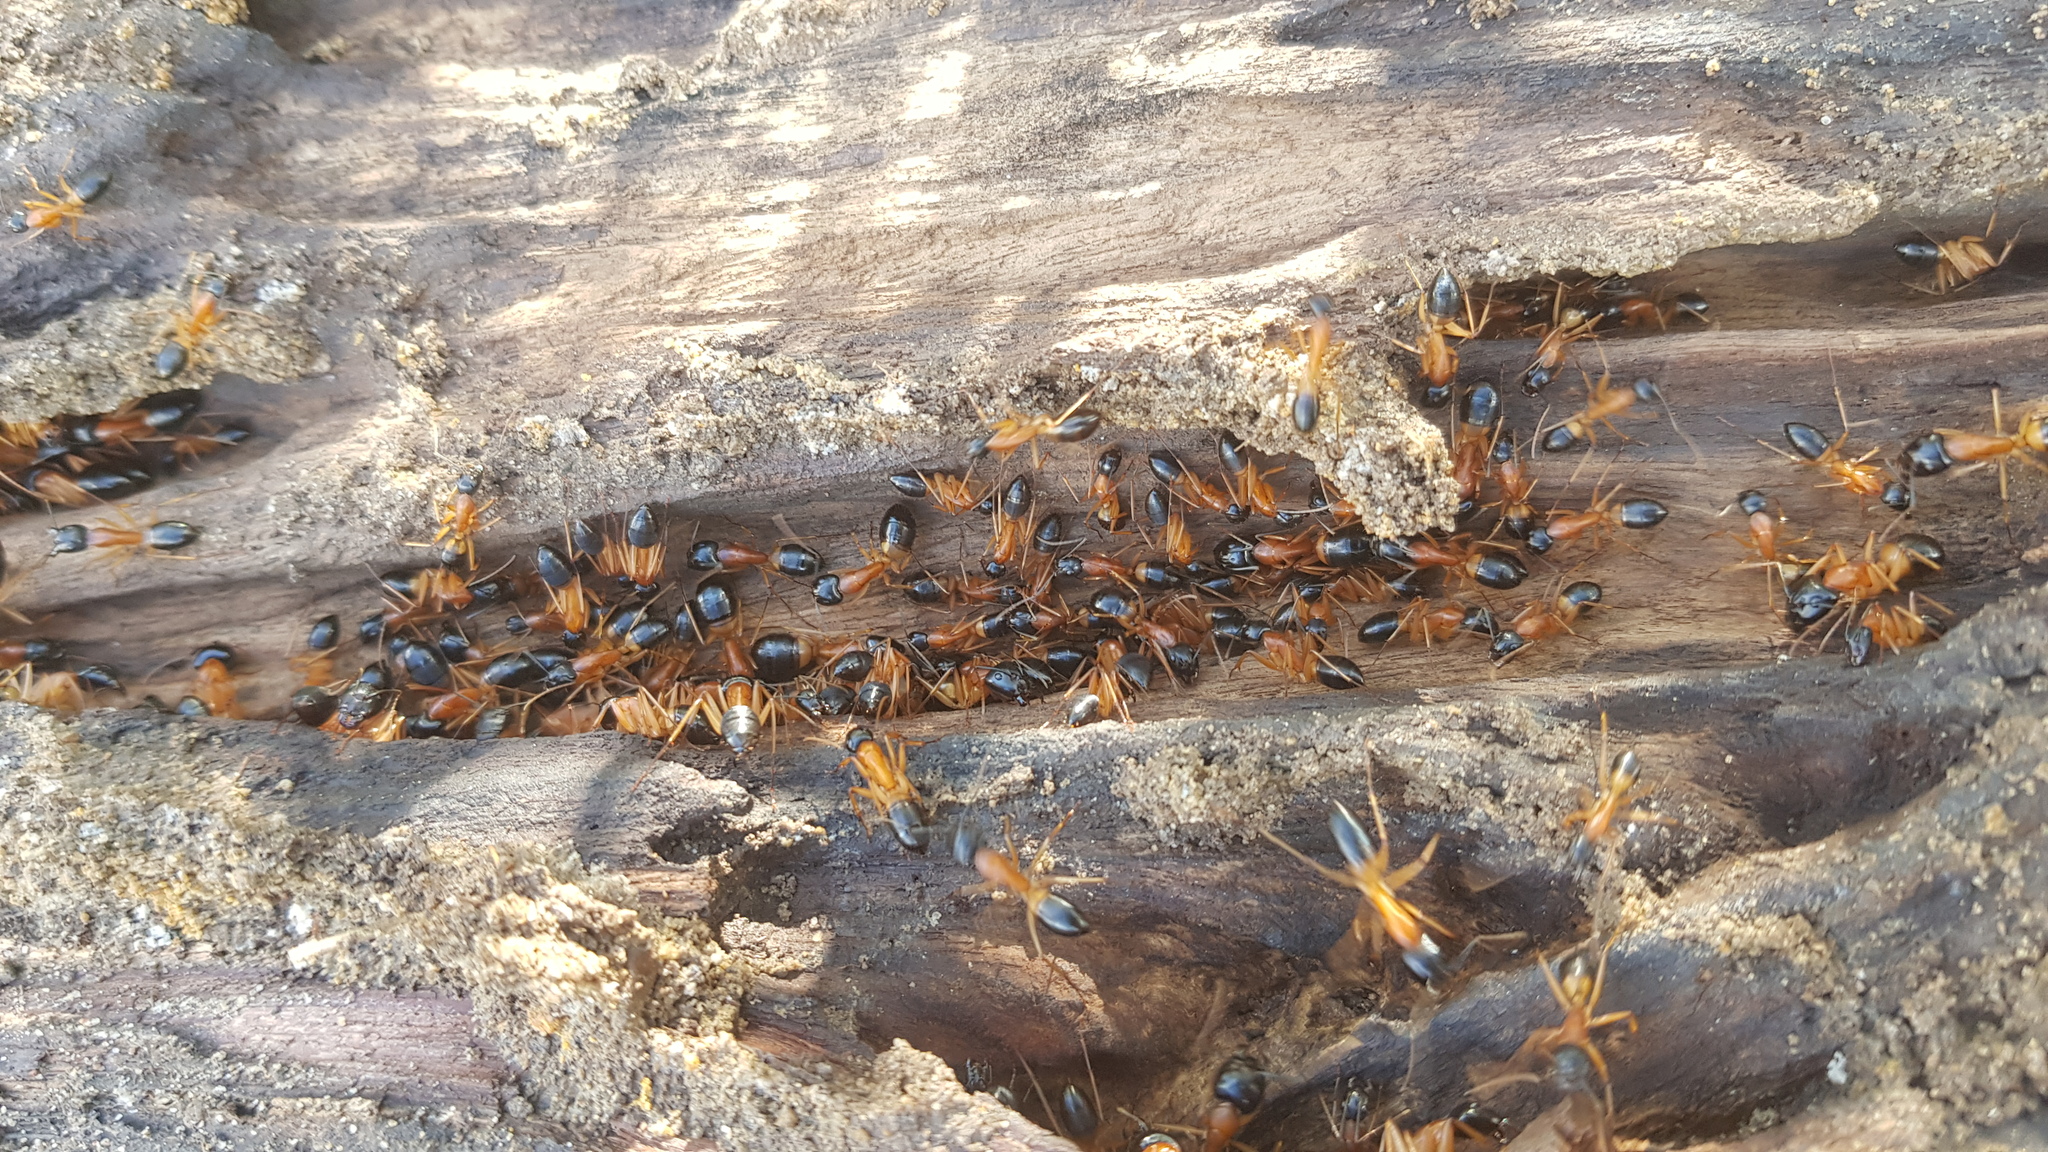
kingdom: Animalia
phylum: Arthropoda
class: Insecta
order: Hymenoptera
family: Formicidae
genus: Camponotus
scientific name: Camponotus consobrinus
